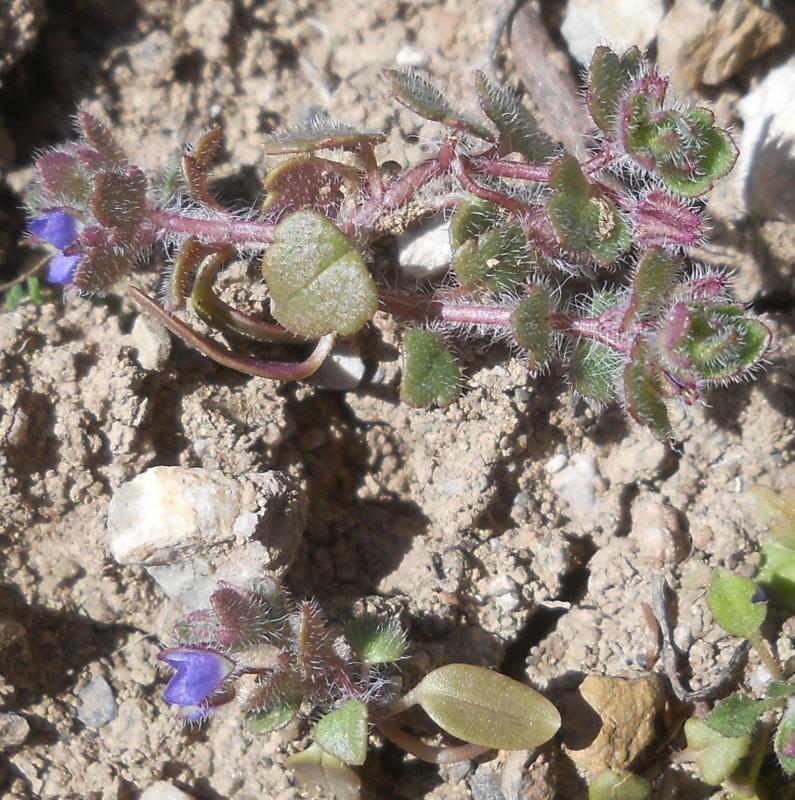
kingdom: Plantae
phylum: Tracheophyta
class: Magnoliopsida
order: Lamiales
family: Plantaginaceae
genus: Veronica
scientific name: Veronica hederifolia
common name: Ivy-leaved speedwell
